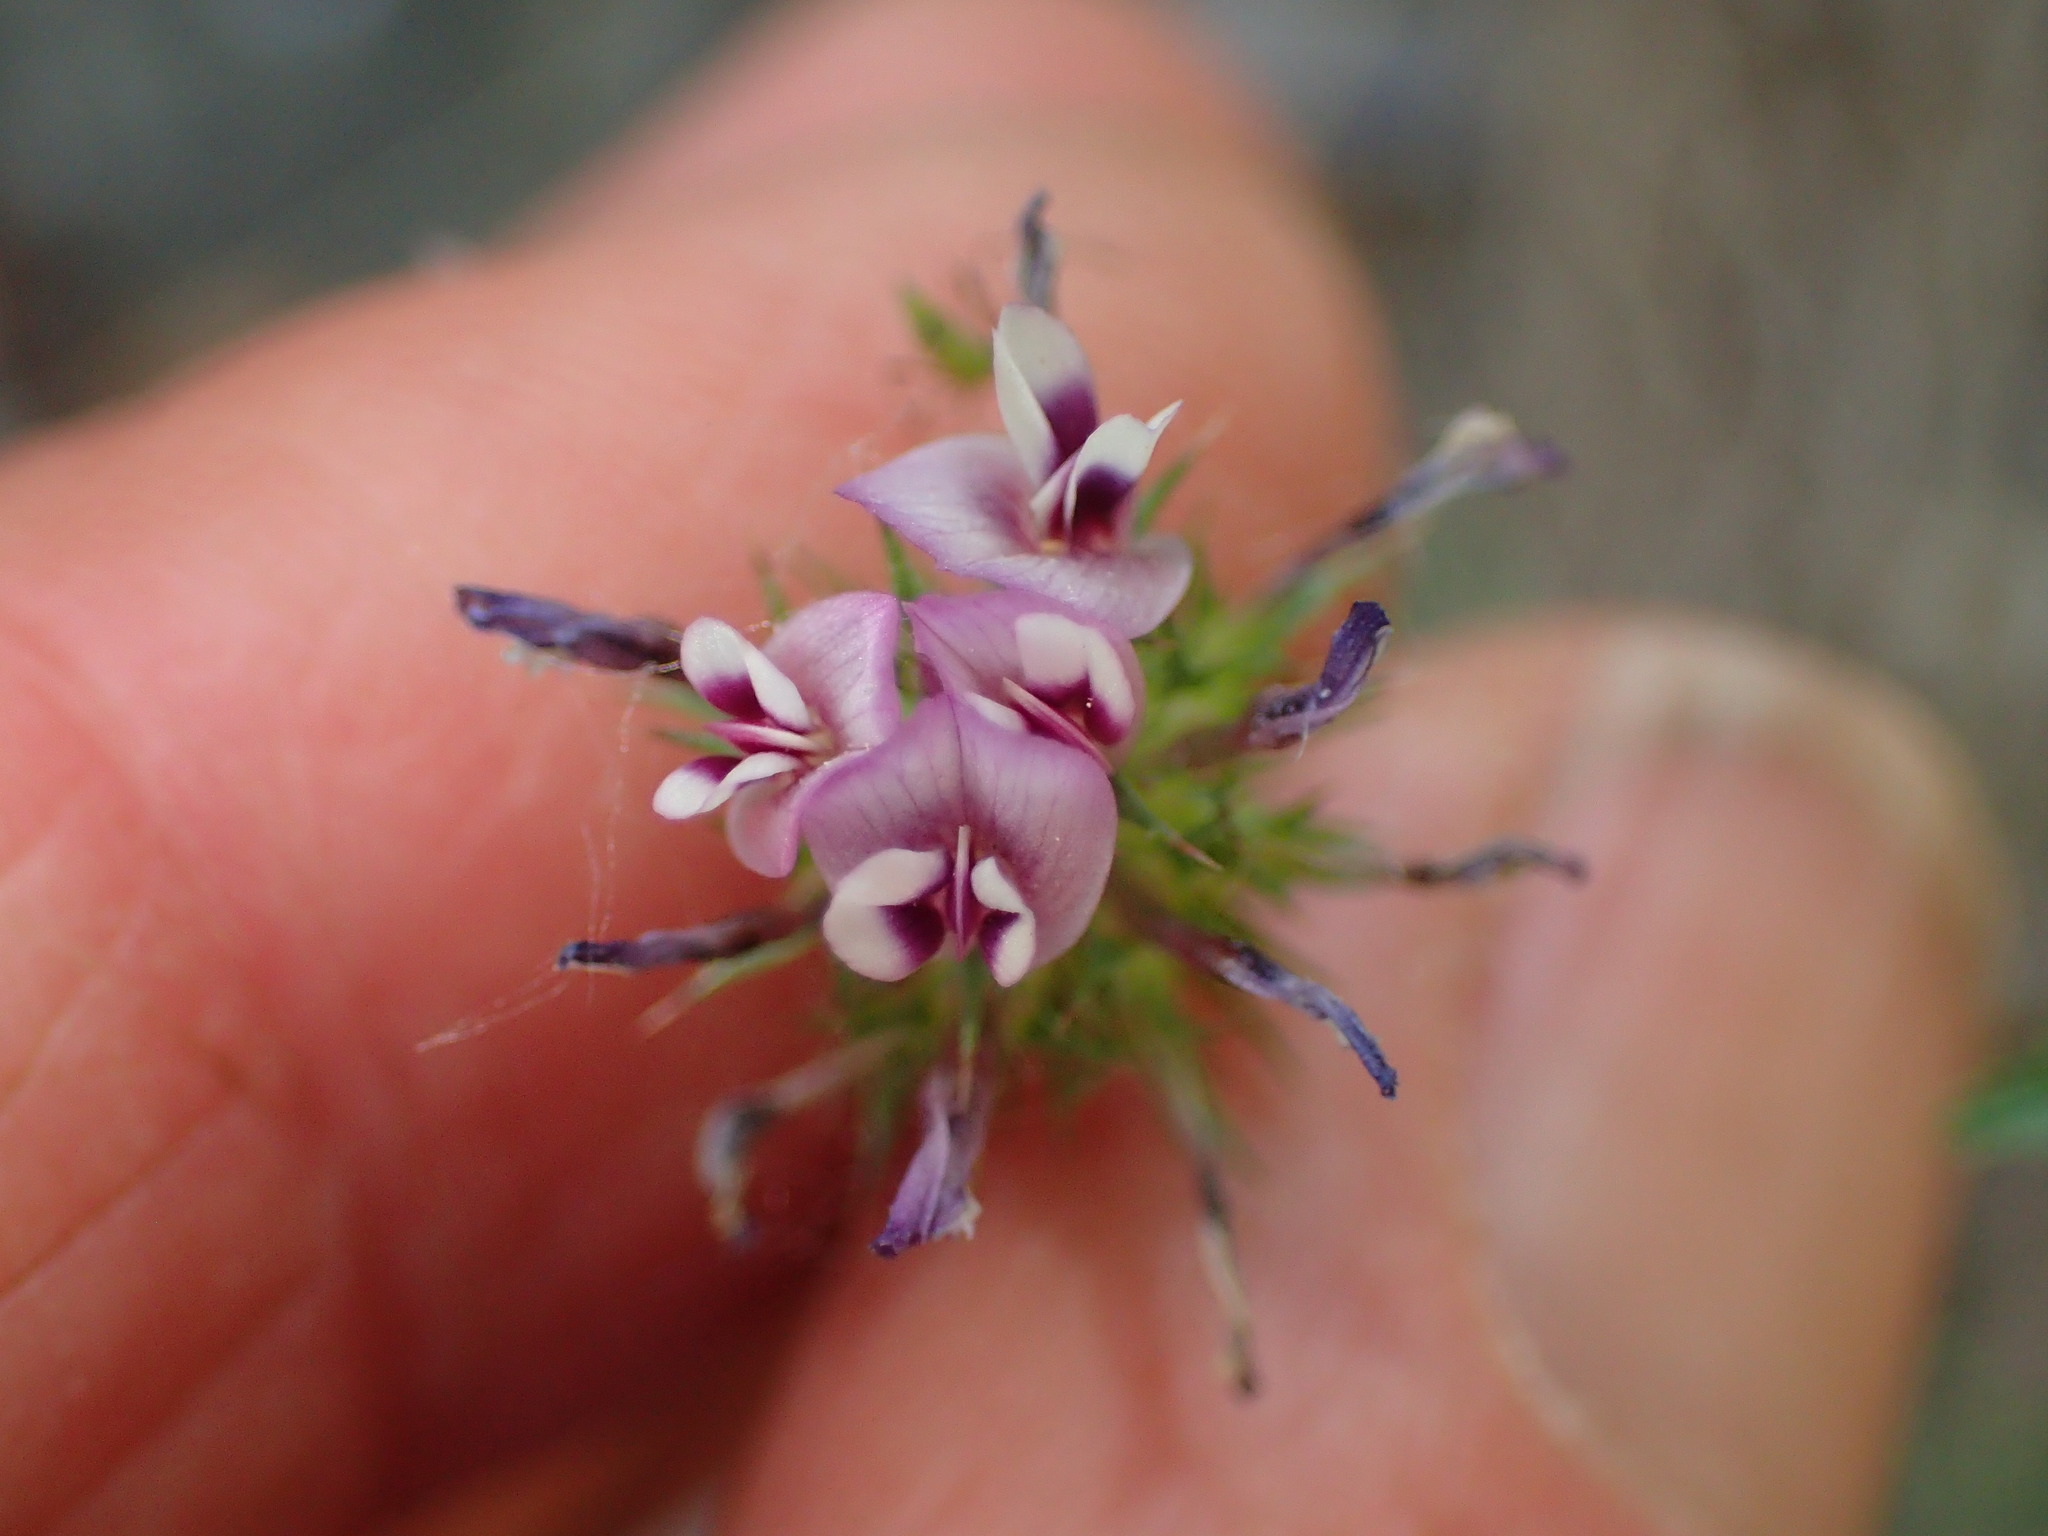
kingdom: Plantae
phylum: Tracheophyta
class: Magnoliopsida
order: Fabales
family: Fabaceae
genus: Trifolium
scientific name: Trifolium willdenovii
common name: Tomcat clover
